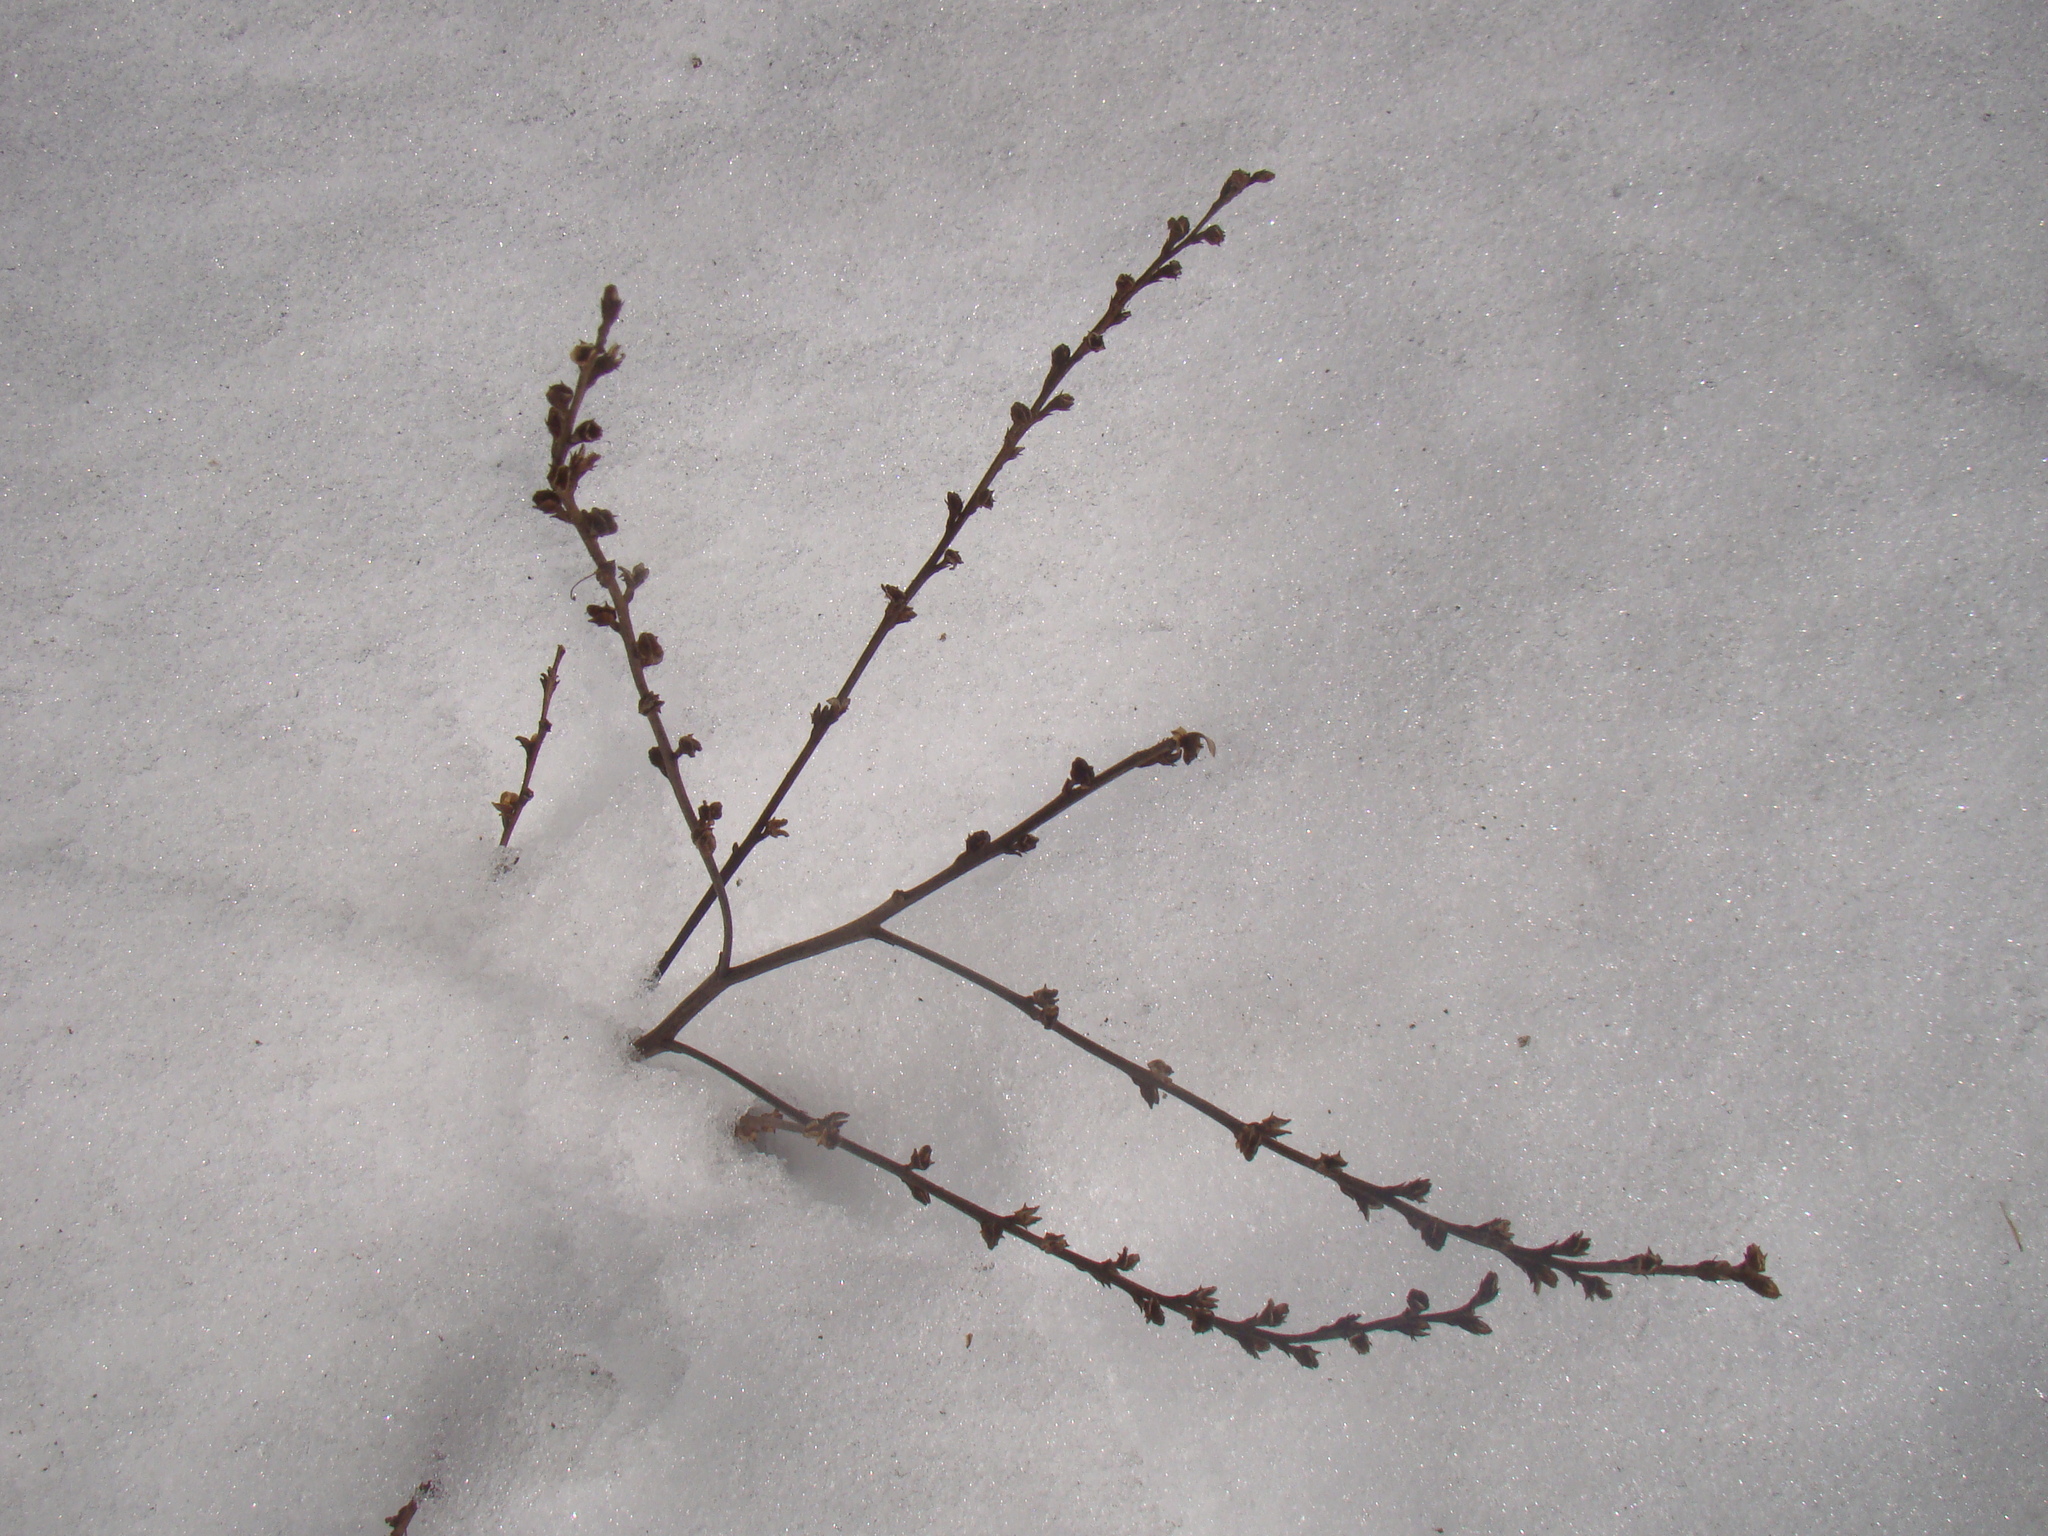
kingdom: Plantae
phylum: Tracheophyta
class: Magnoliopsida
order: Lamiales
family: Orobanchaceae
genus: Epifagus
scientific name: Epifagus virginiana
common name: Beechdrops
